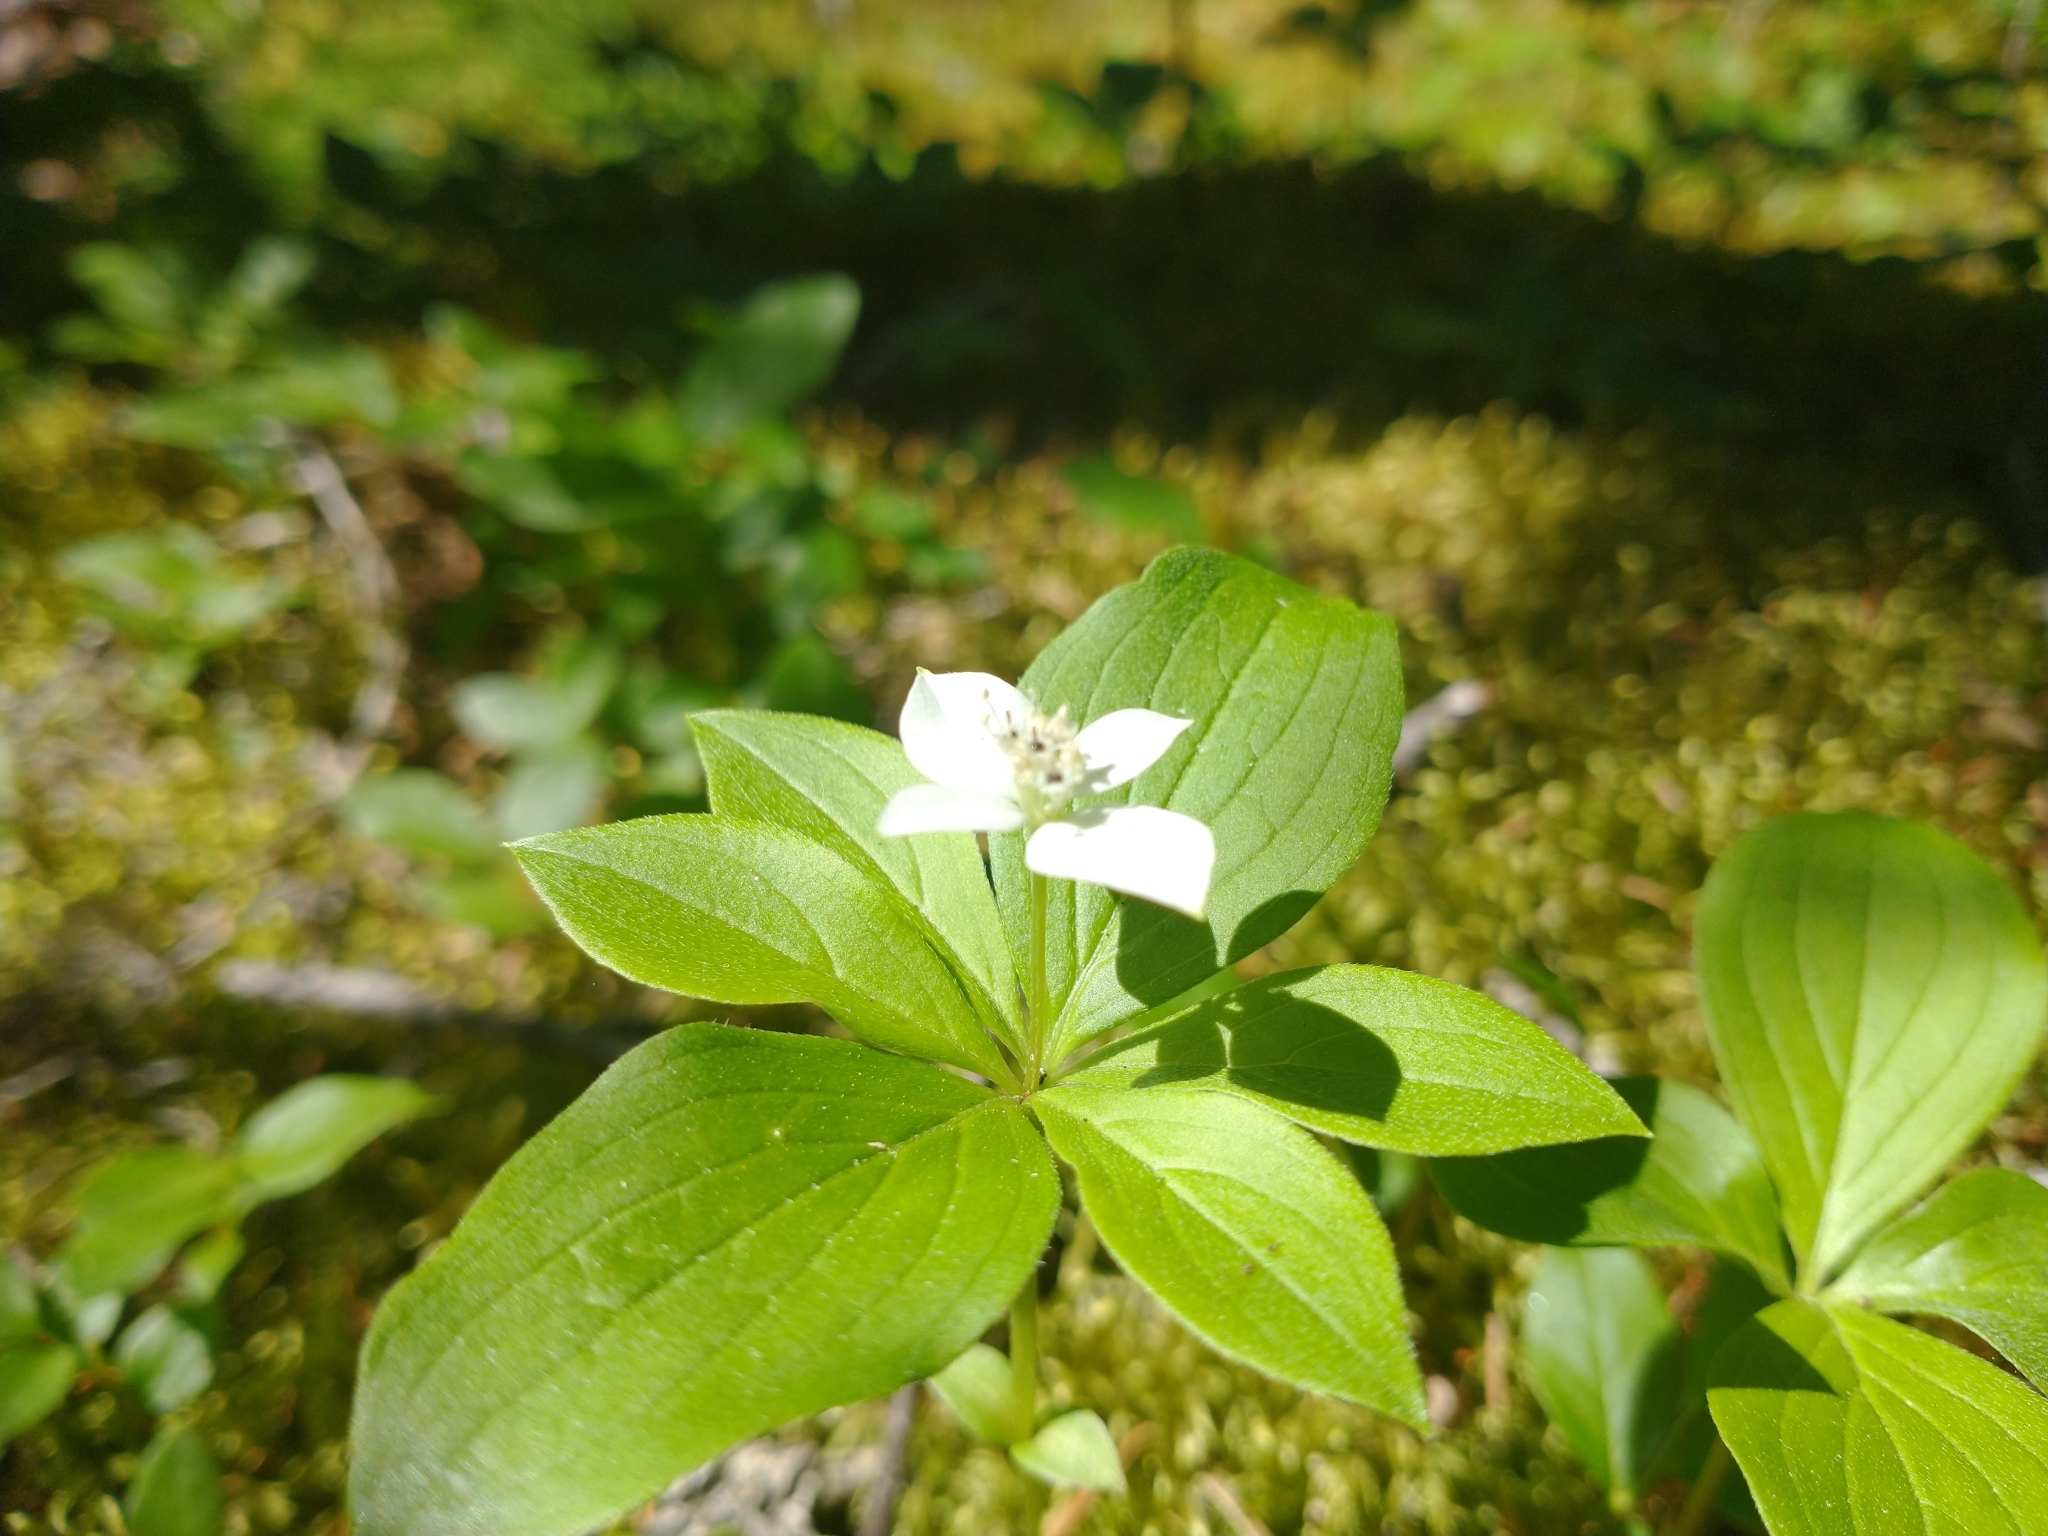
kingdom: Plantae
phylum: Tracheophyta
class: Magnoliopsida
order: Cornales
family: Cornaceae
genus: Cornus
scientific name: Cornus canadensis
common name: Creeping dogwood
